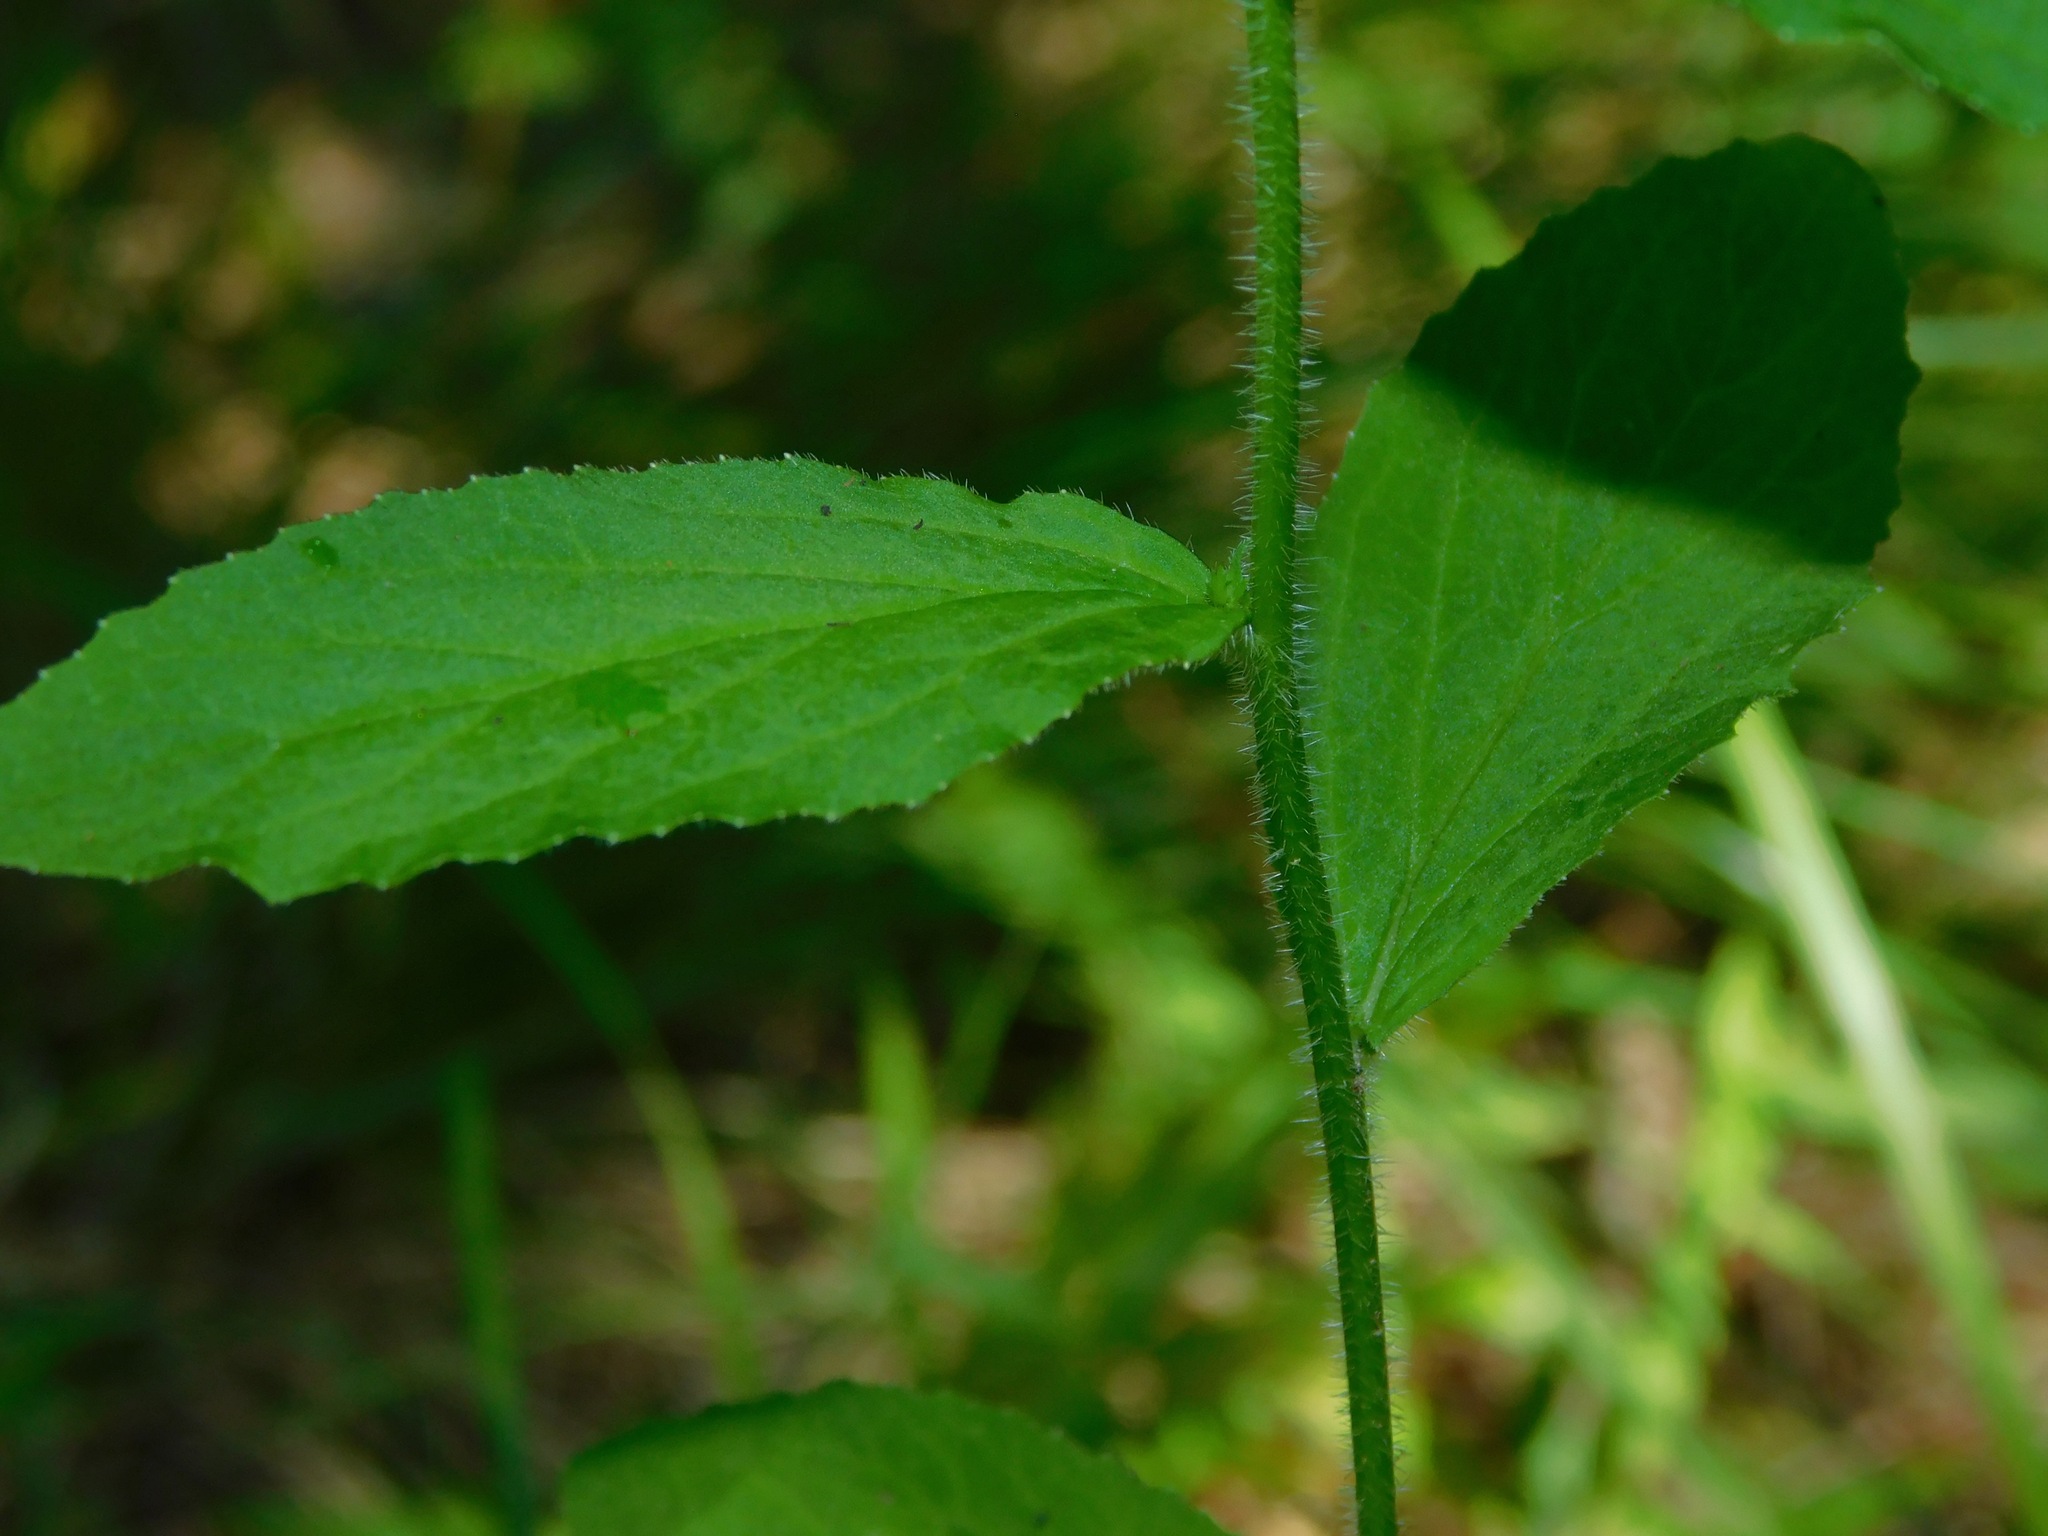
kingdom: Plantae
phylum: Tracheophyta
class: Magnoliopsida
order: Asterales
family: Campanulaceae
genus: Lobelia
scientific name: Lobelia inflata
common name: Indian tobacco
